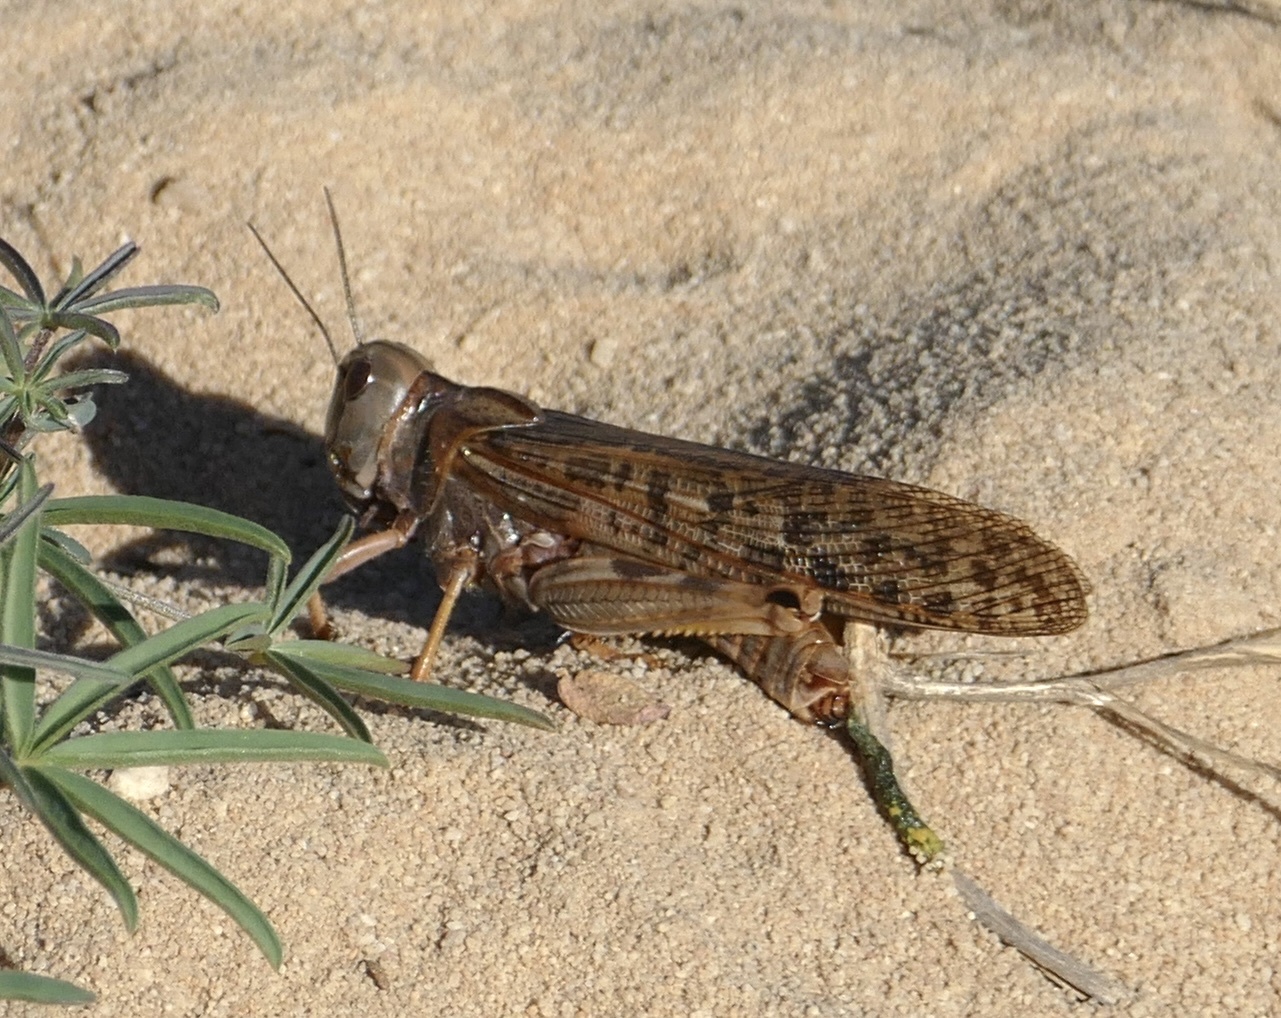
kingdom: Animalia
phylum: Arthropoda
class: Insecta
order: Orthoptera
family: Acrididae
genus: Locustana
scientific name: Locustana pardalina
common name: Brown locust
